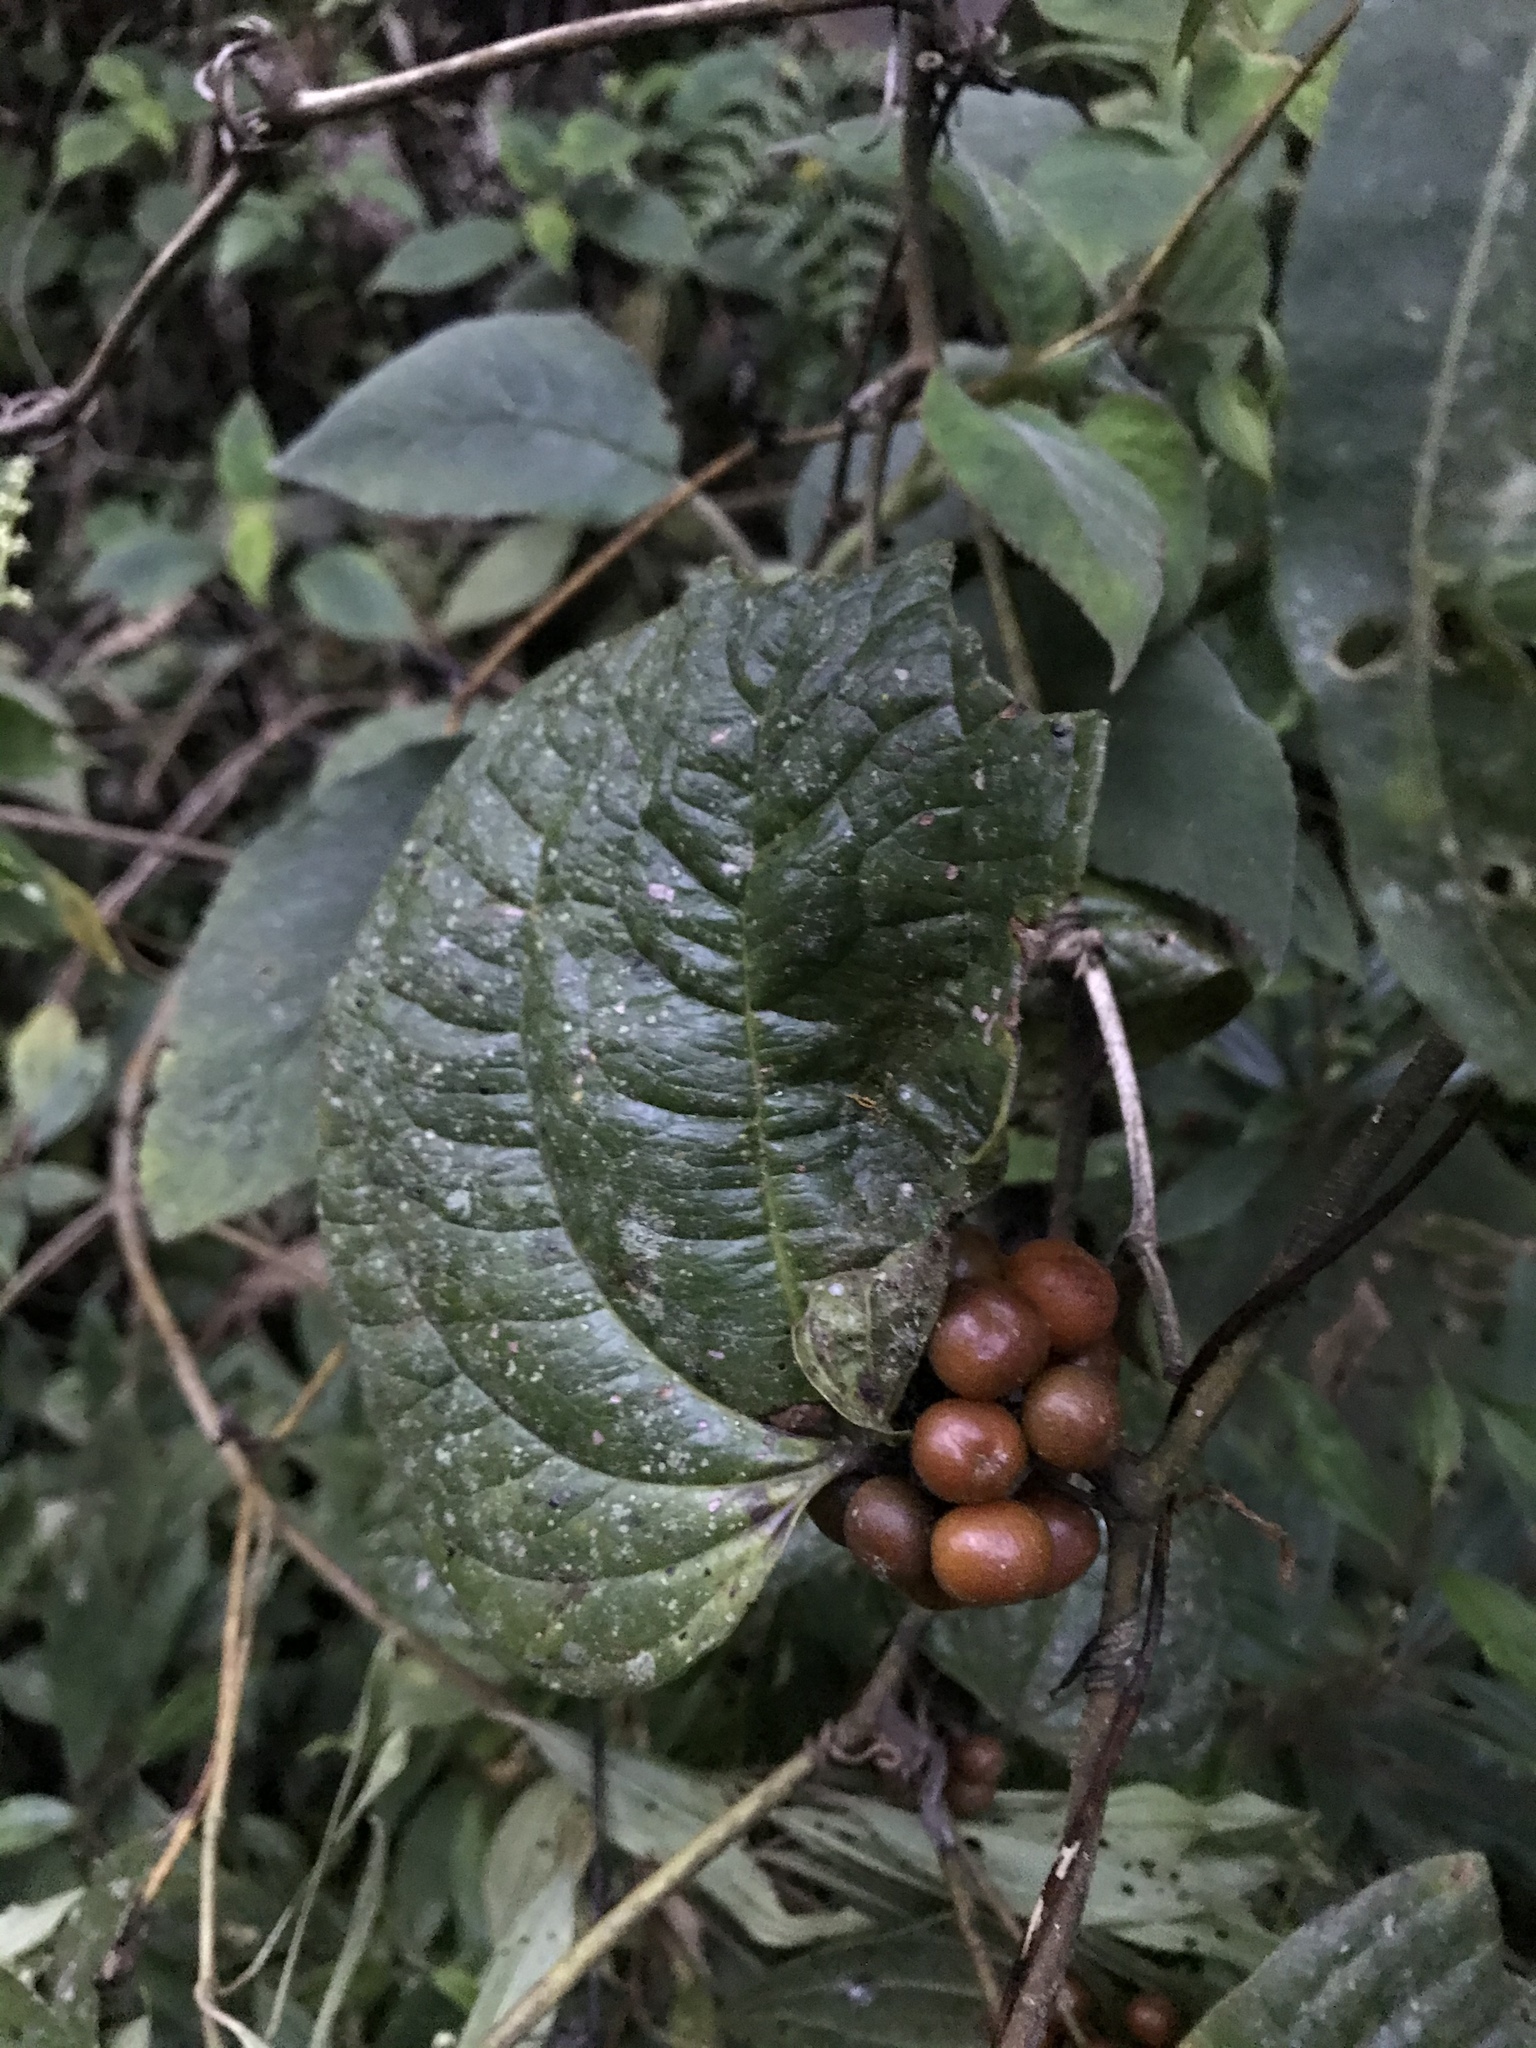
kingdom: Plantae
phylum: Tracheophyta
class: Liliopsida
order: Liliales
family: Smilacaceae
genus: Smilax
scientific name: Smilax tomentosa
